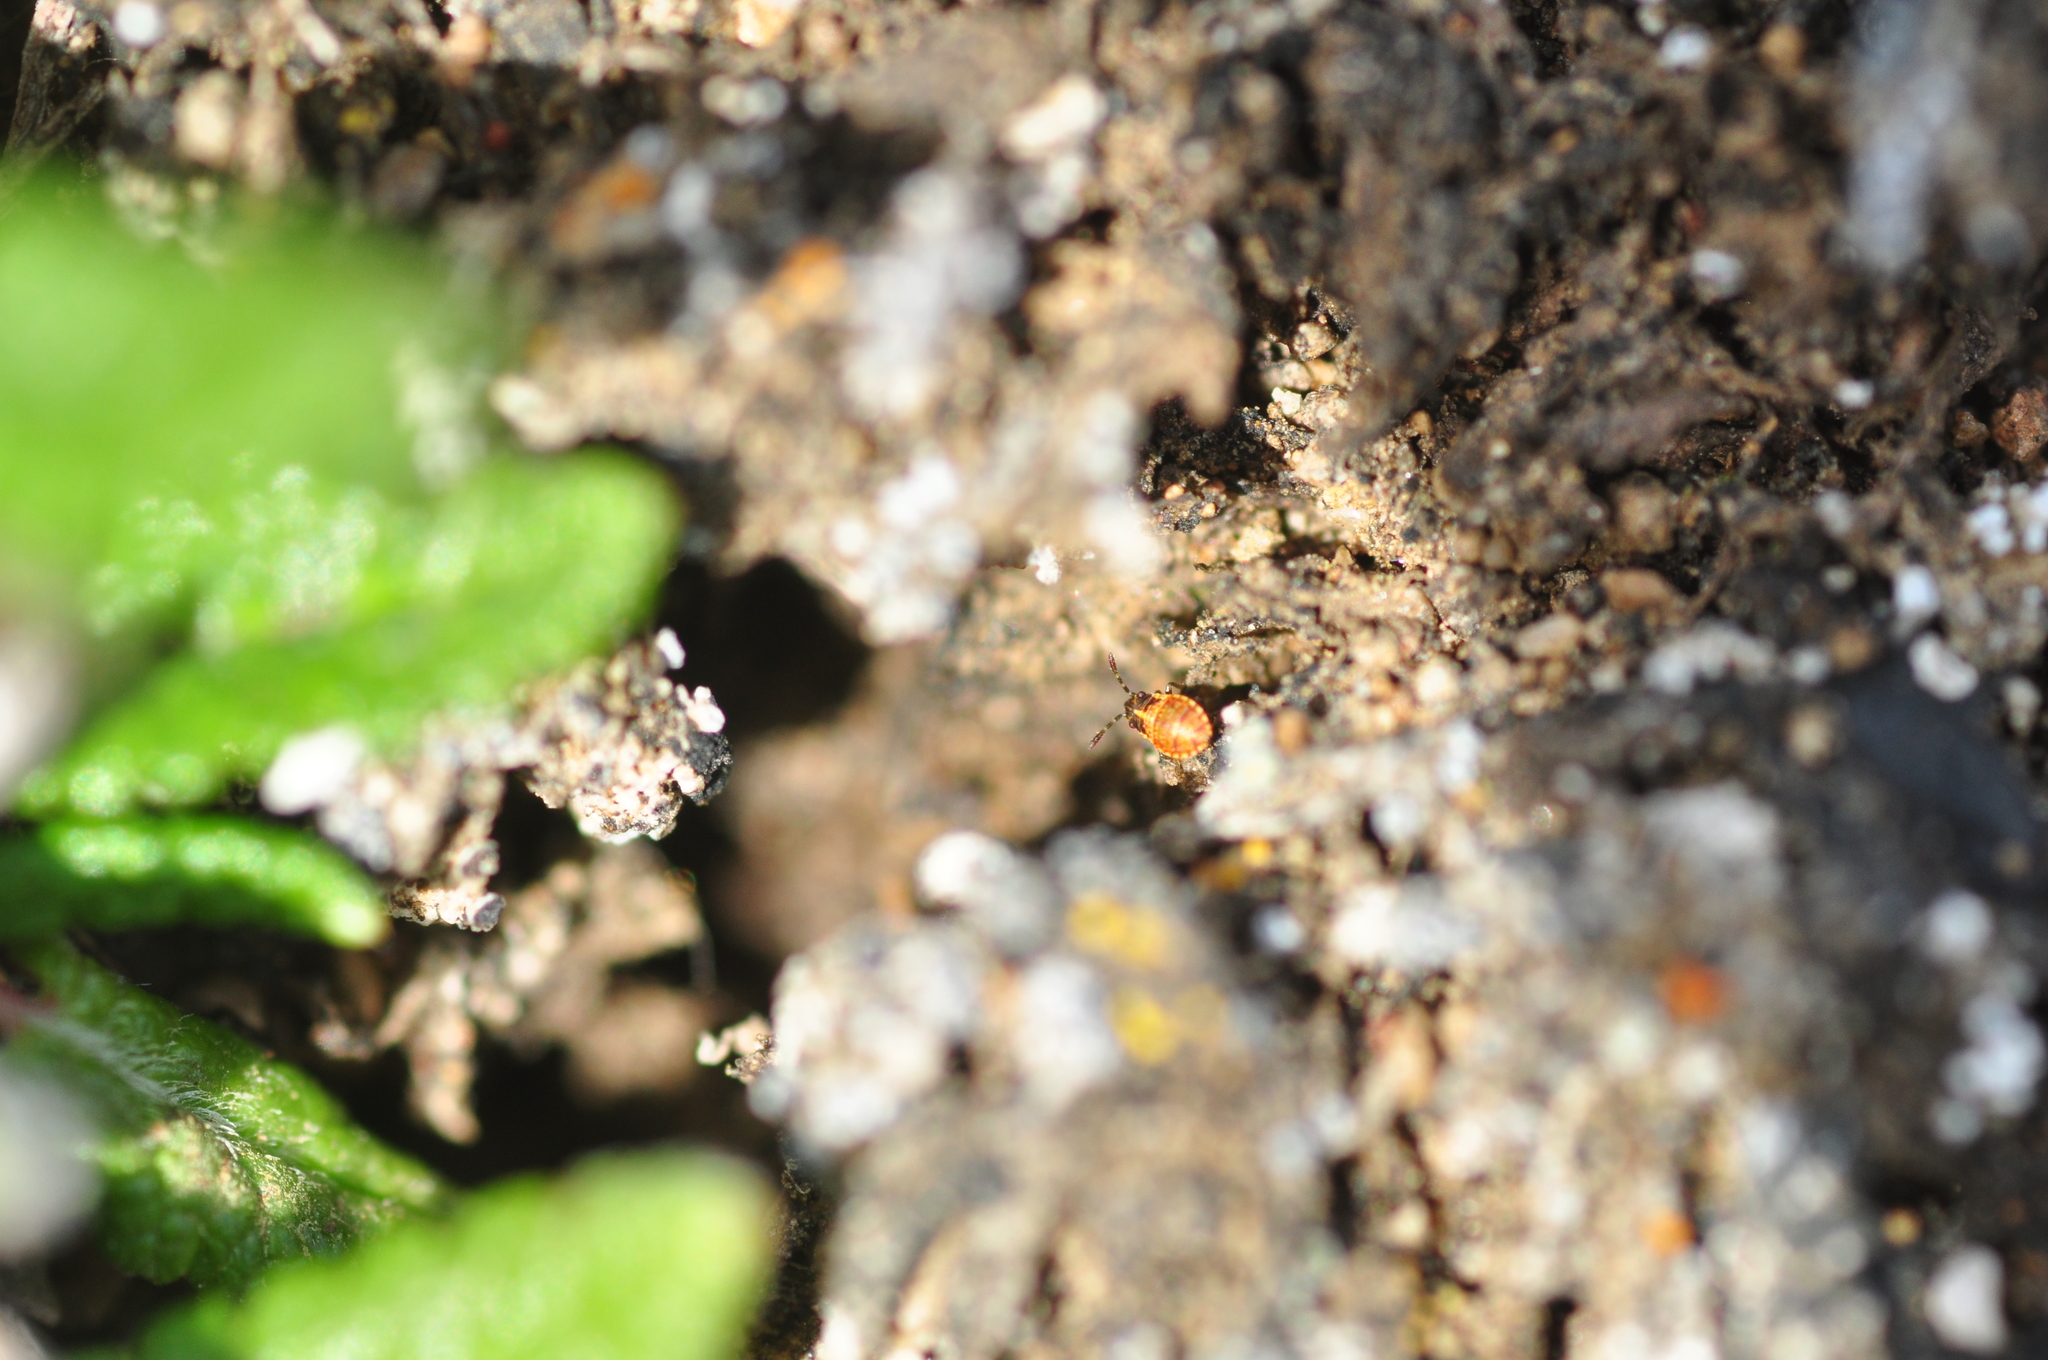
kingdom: Animalia
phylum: Arthropoda
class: Insecta
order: Hemiptera
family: Lygaeidae
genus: Nysius
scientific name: Nysius groenlandicus
